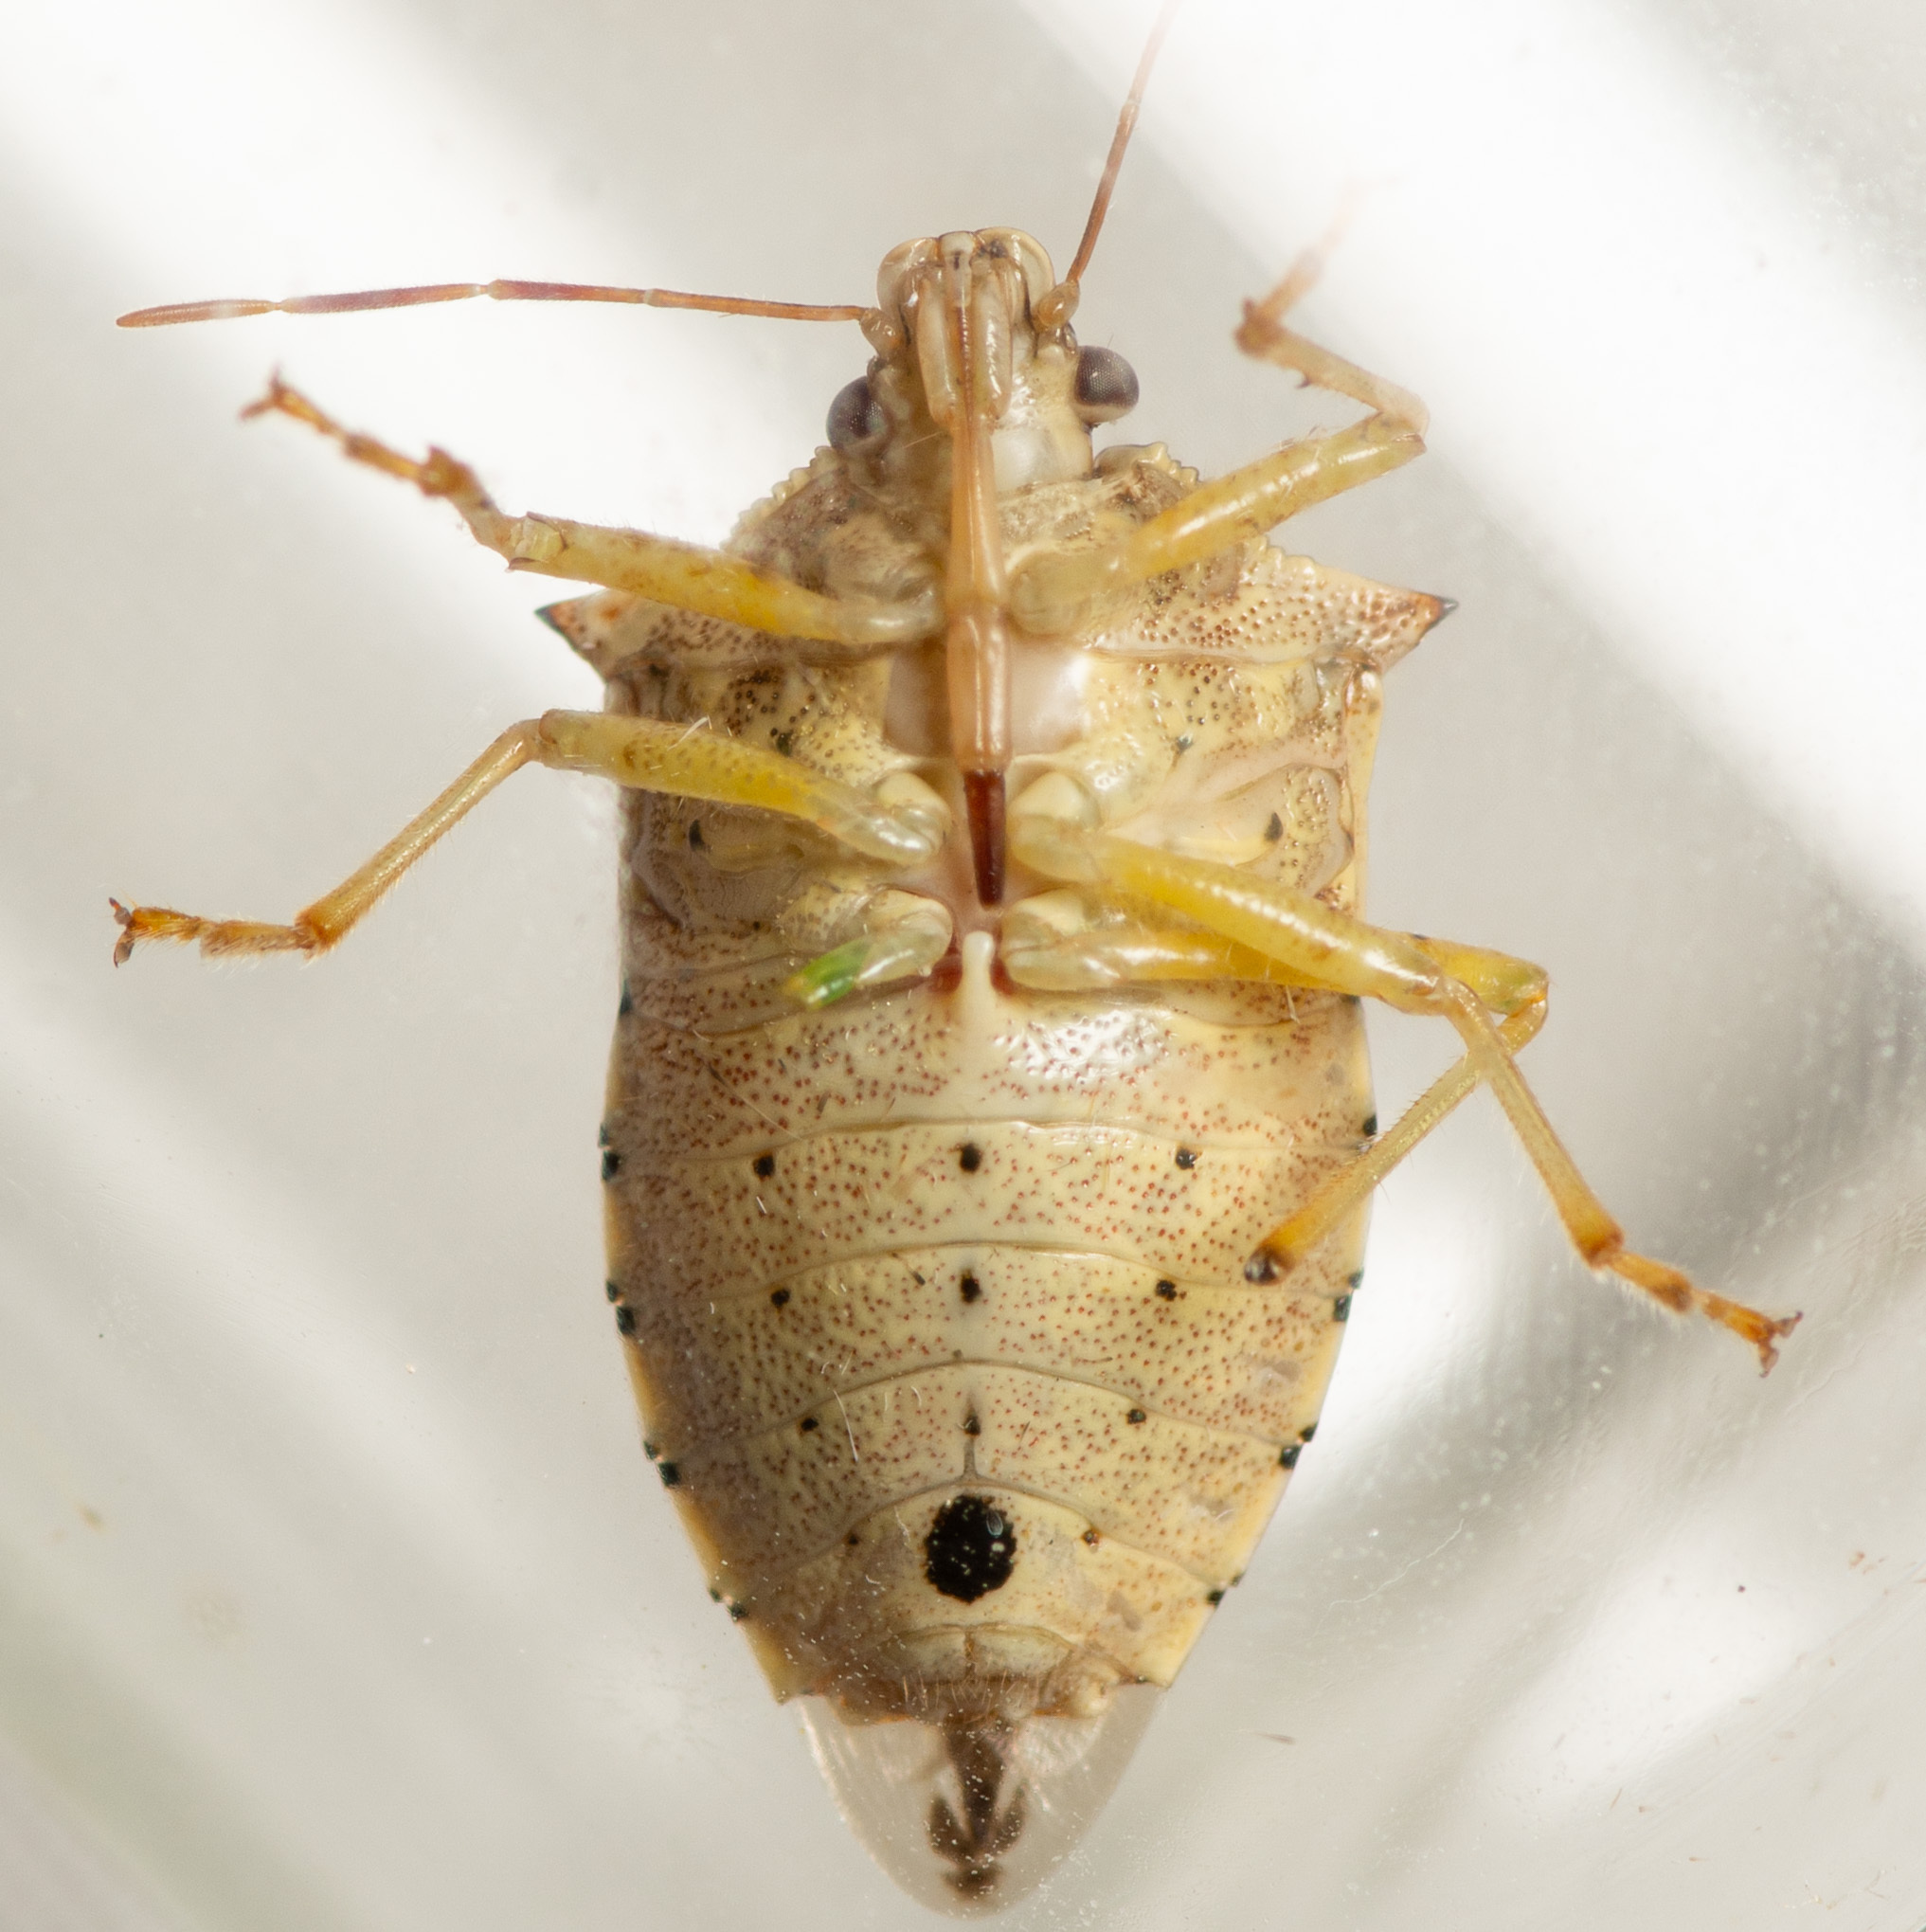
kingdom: Animalia
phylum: Arthropoda
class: Insecta
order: Hemiptera
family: Pentatomidae
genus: Podisus
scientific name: Podisus maculiventris
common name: Spined soldier bug
